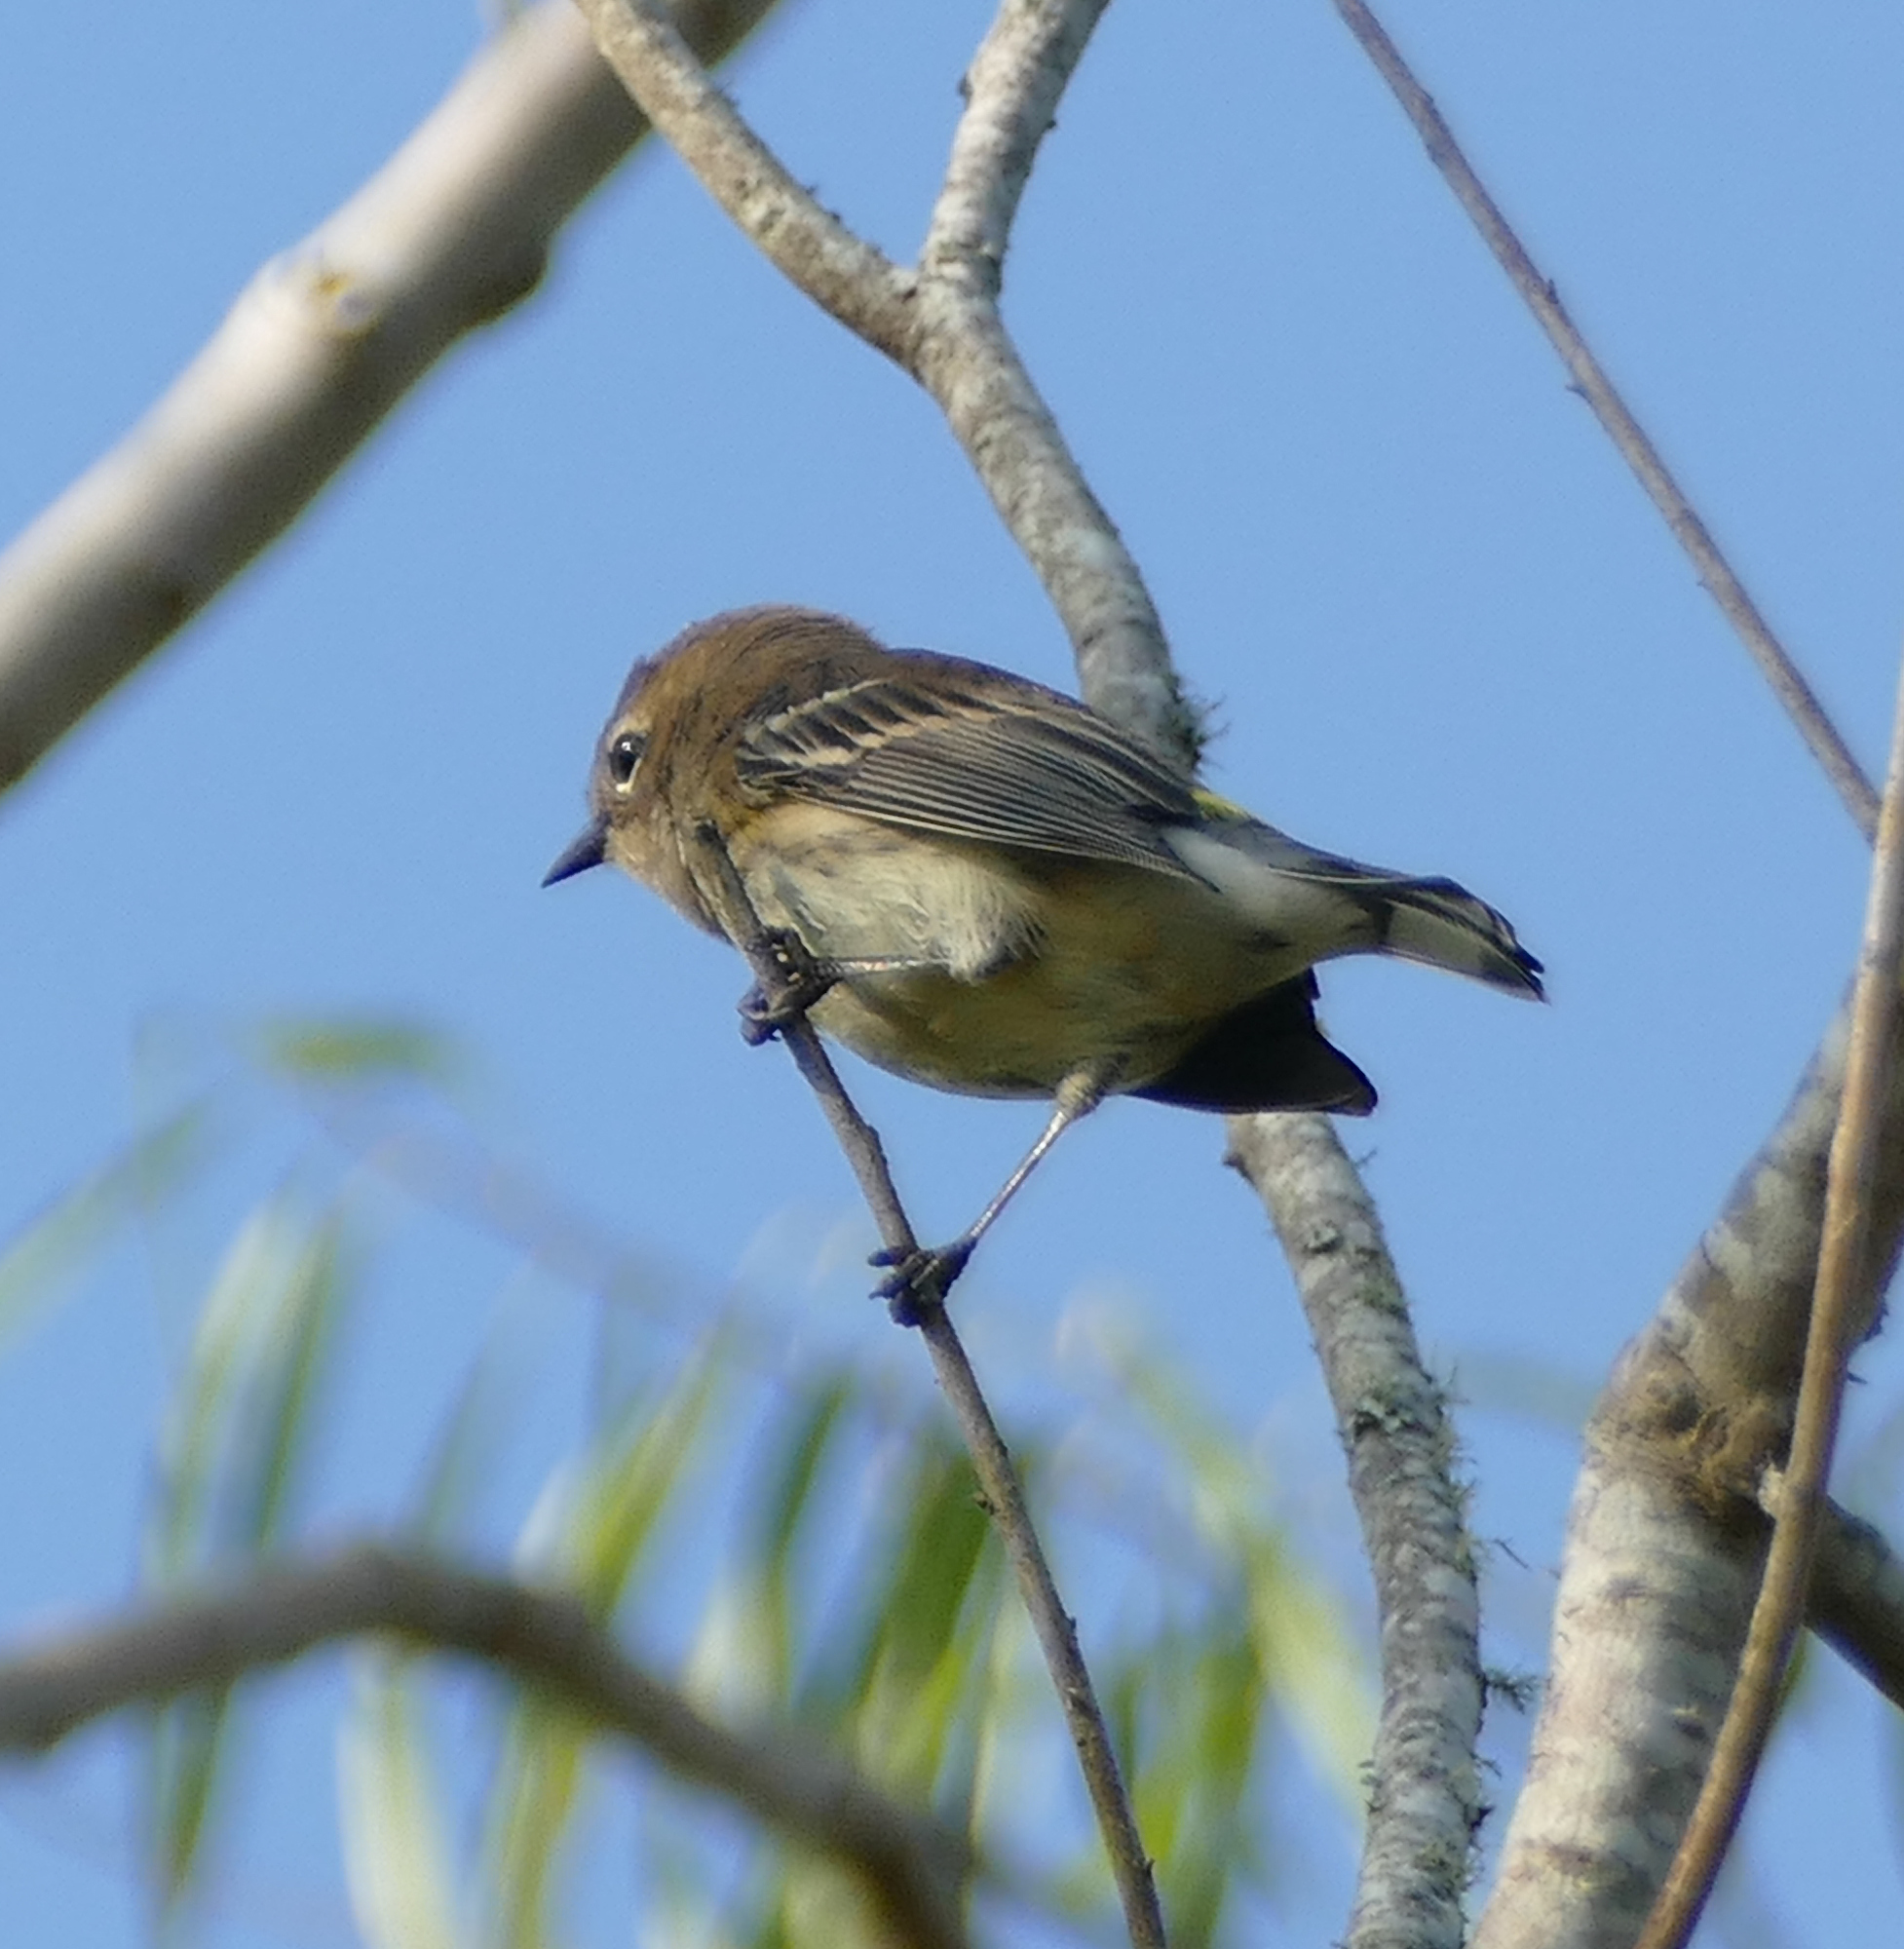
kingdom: Animalia
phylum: Chordata
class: Aves
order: Passeriformes
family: Parulidae
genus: Setophaga
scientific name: Setophaga coronata
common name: Myrtle warbler
